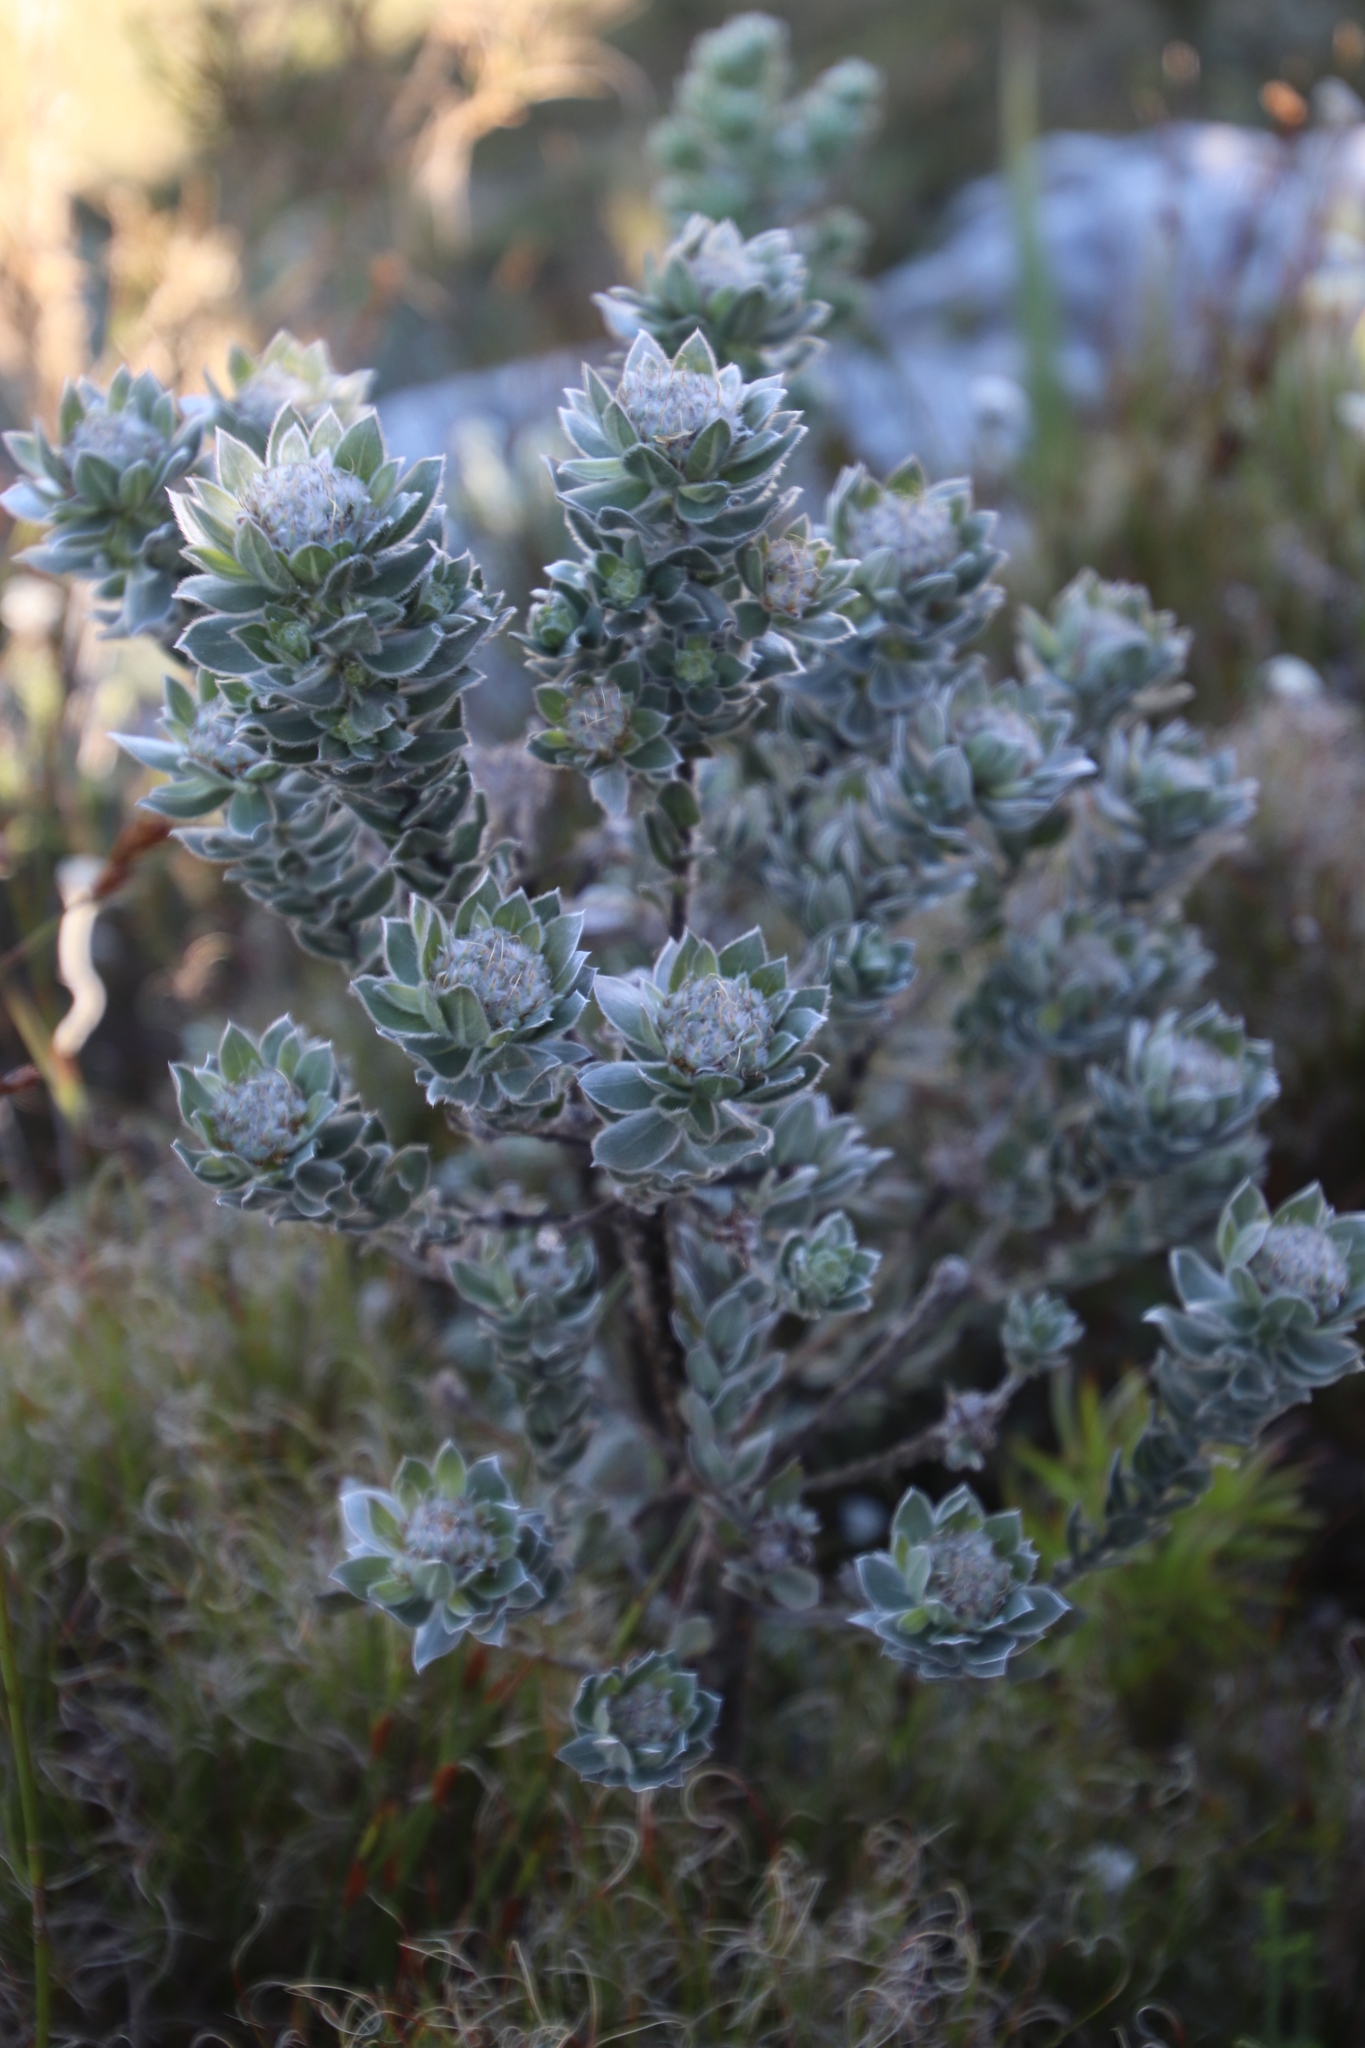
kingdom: Plantae
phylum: Tracheophyta
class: Magnoliopsida
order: Fabales
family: Fabaceae
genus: Xiphotheca
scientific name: Xiphotheca fruticosa
